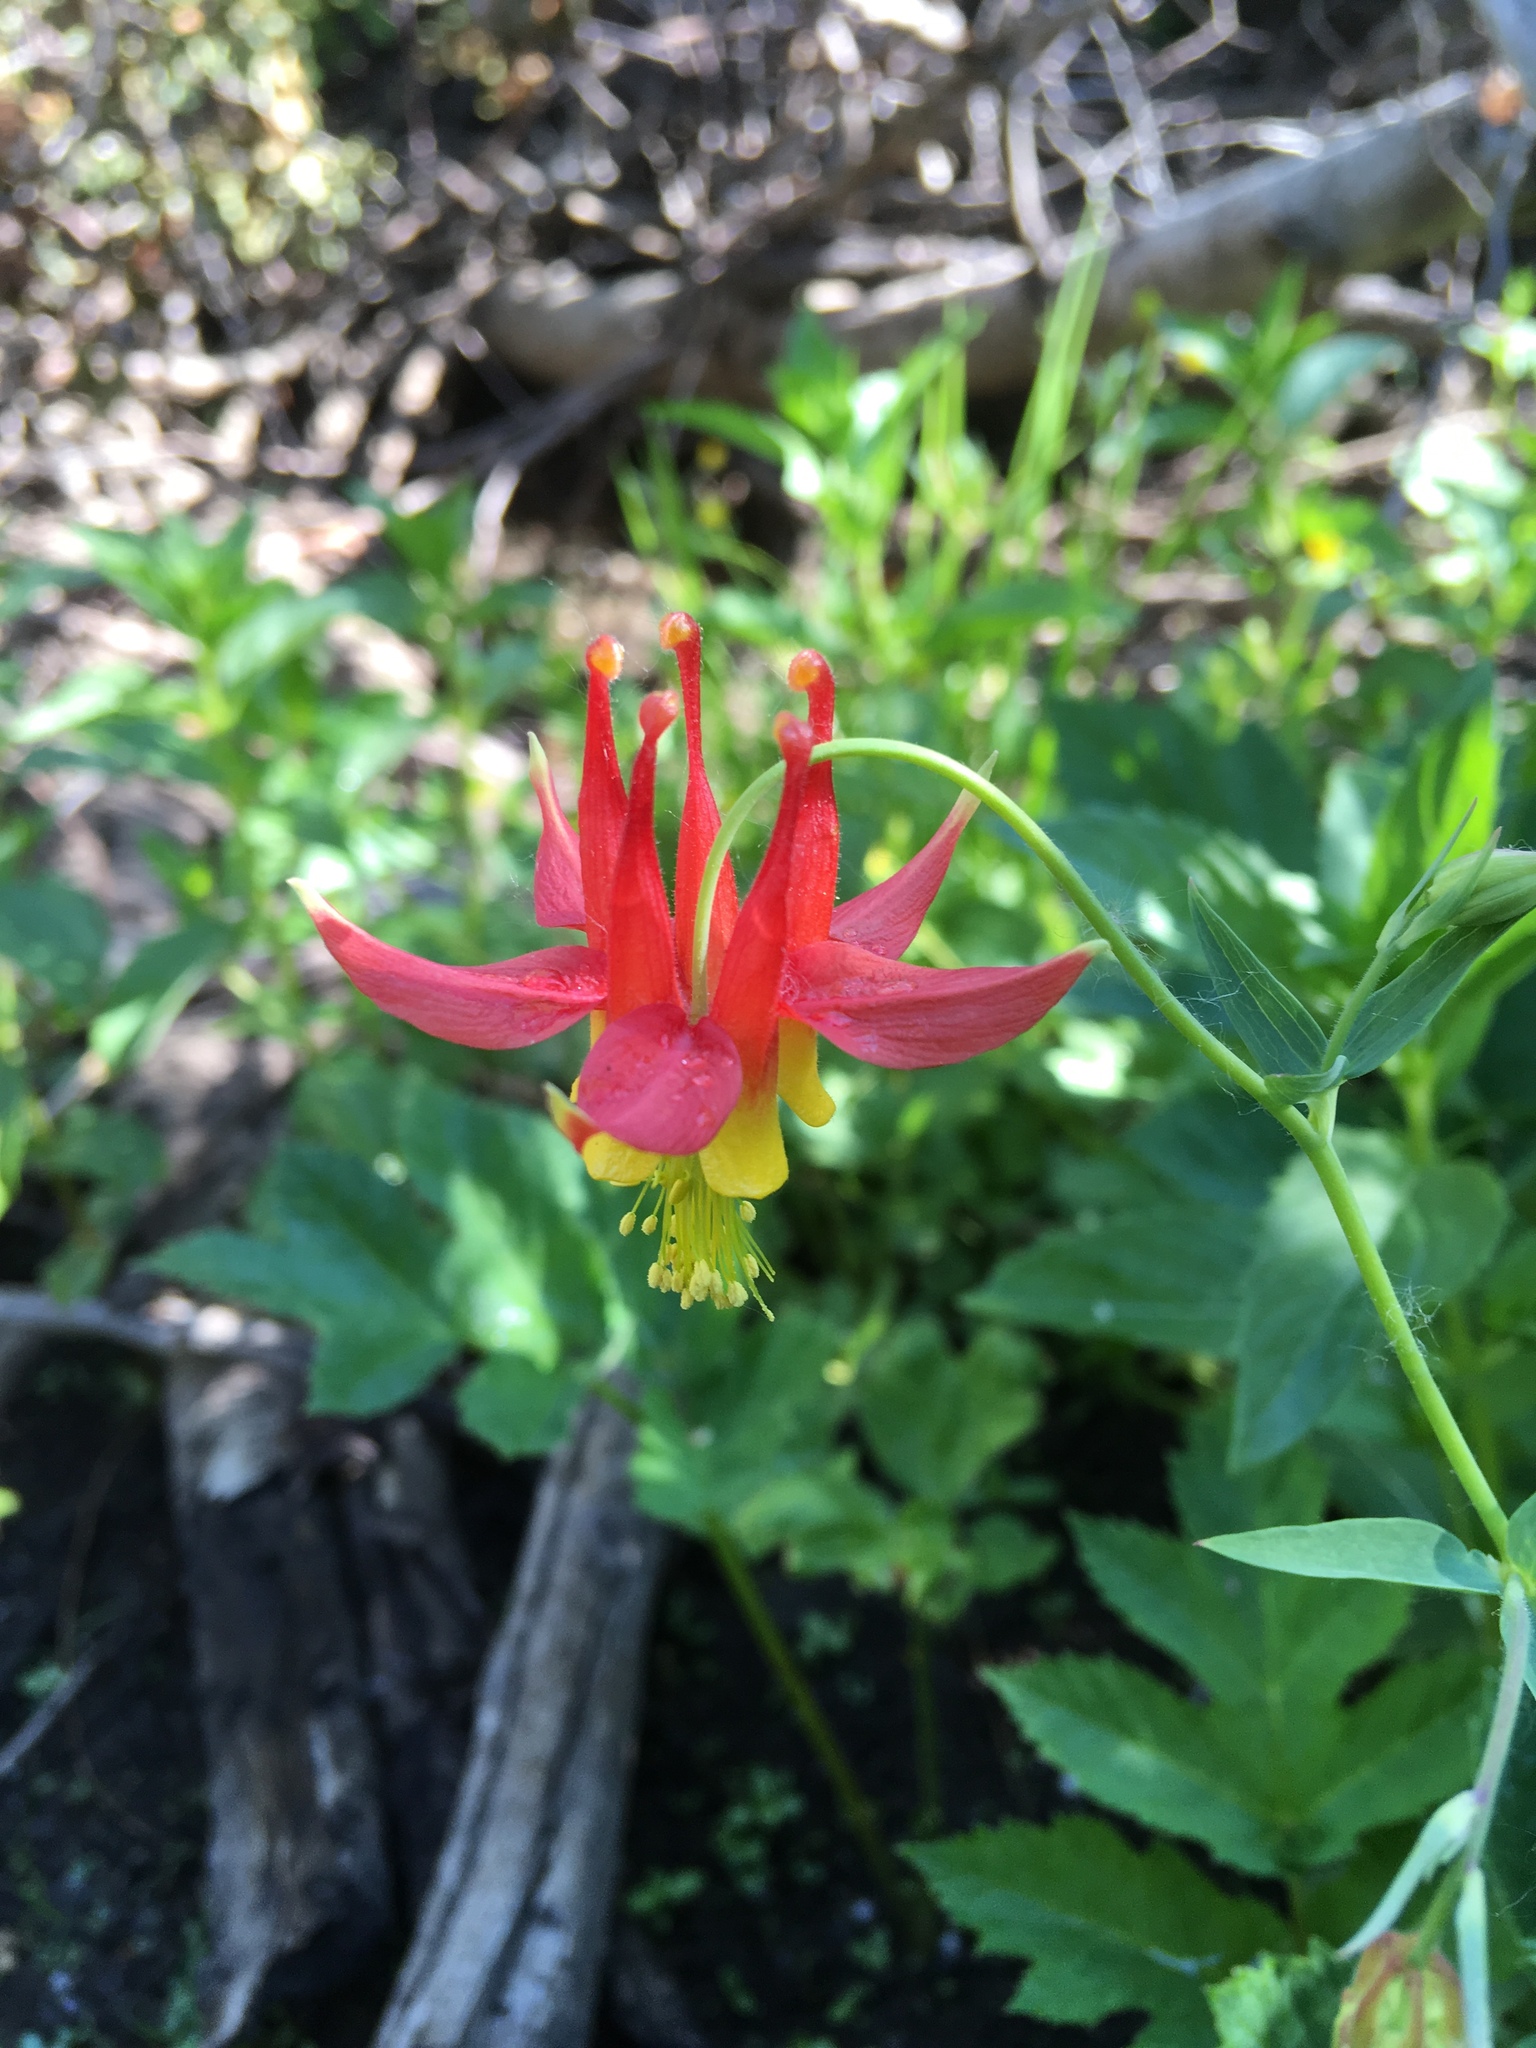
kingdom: Plantae
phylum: Tracheophyta
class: Magnoliopsida
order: Ranunculales
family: Ranunculaceae
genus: Aquilegia
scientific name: Aquilegia formosa
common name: Sitka columbine
